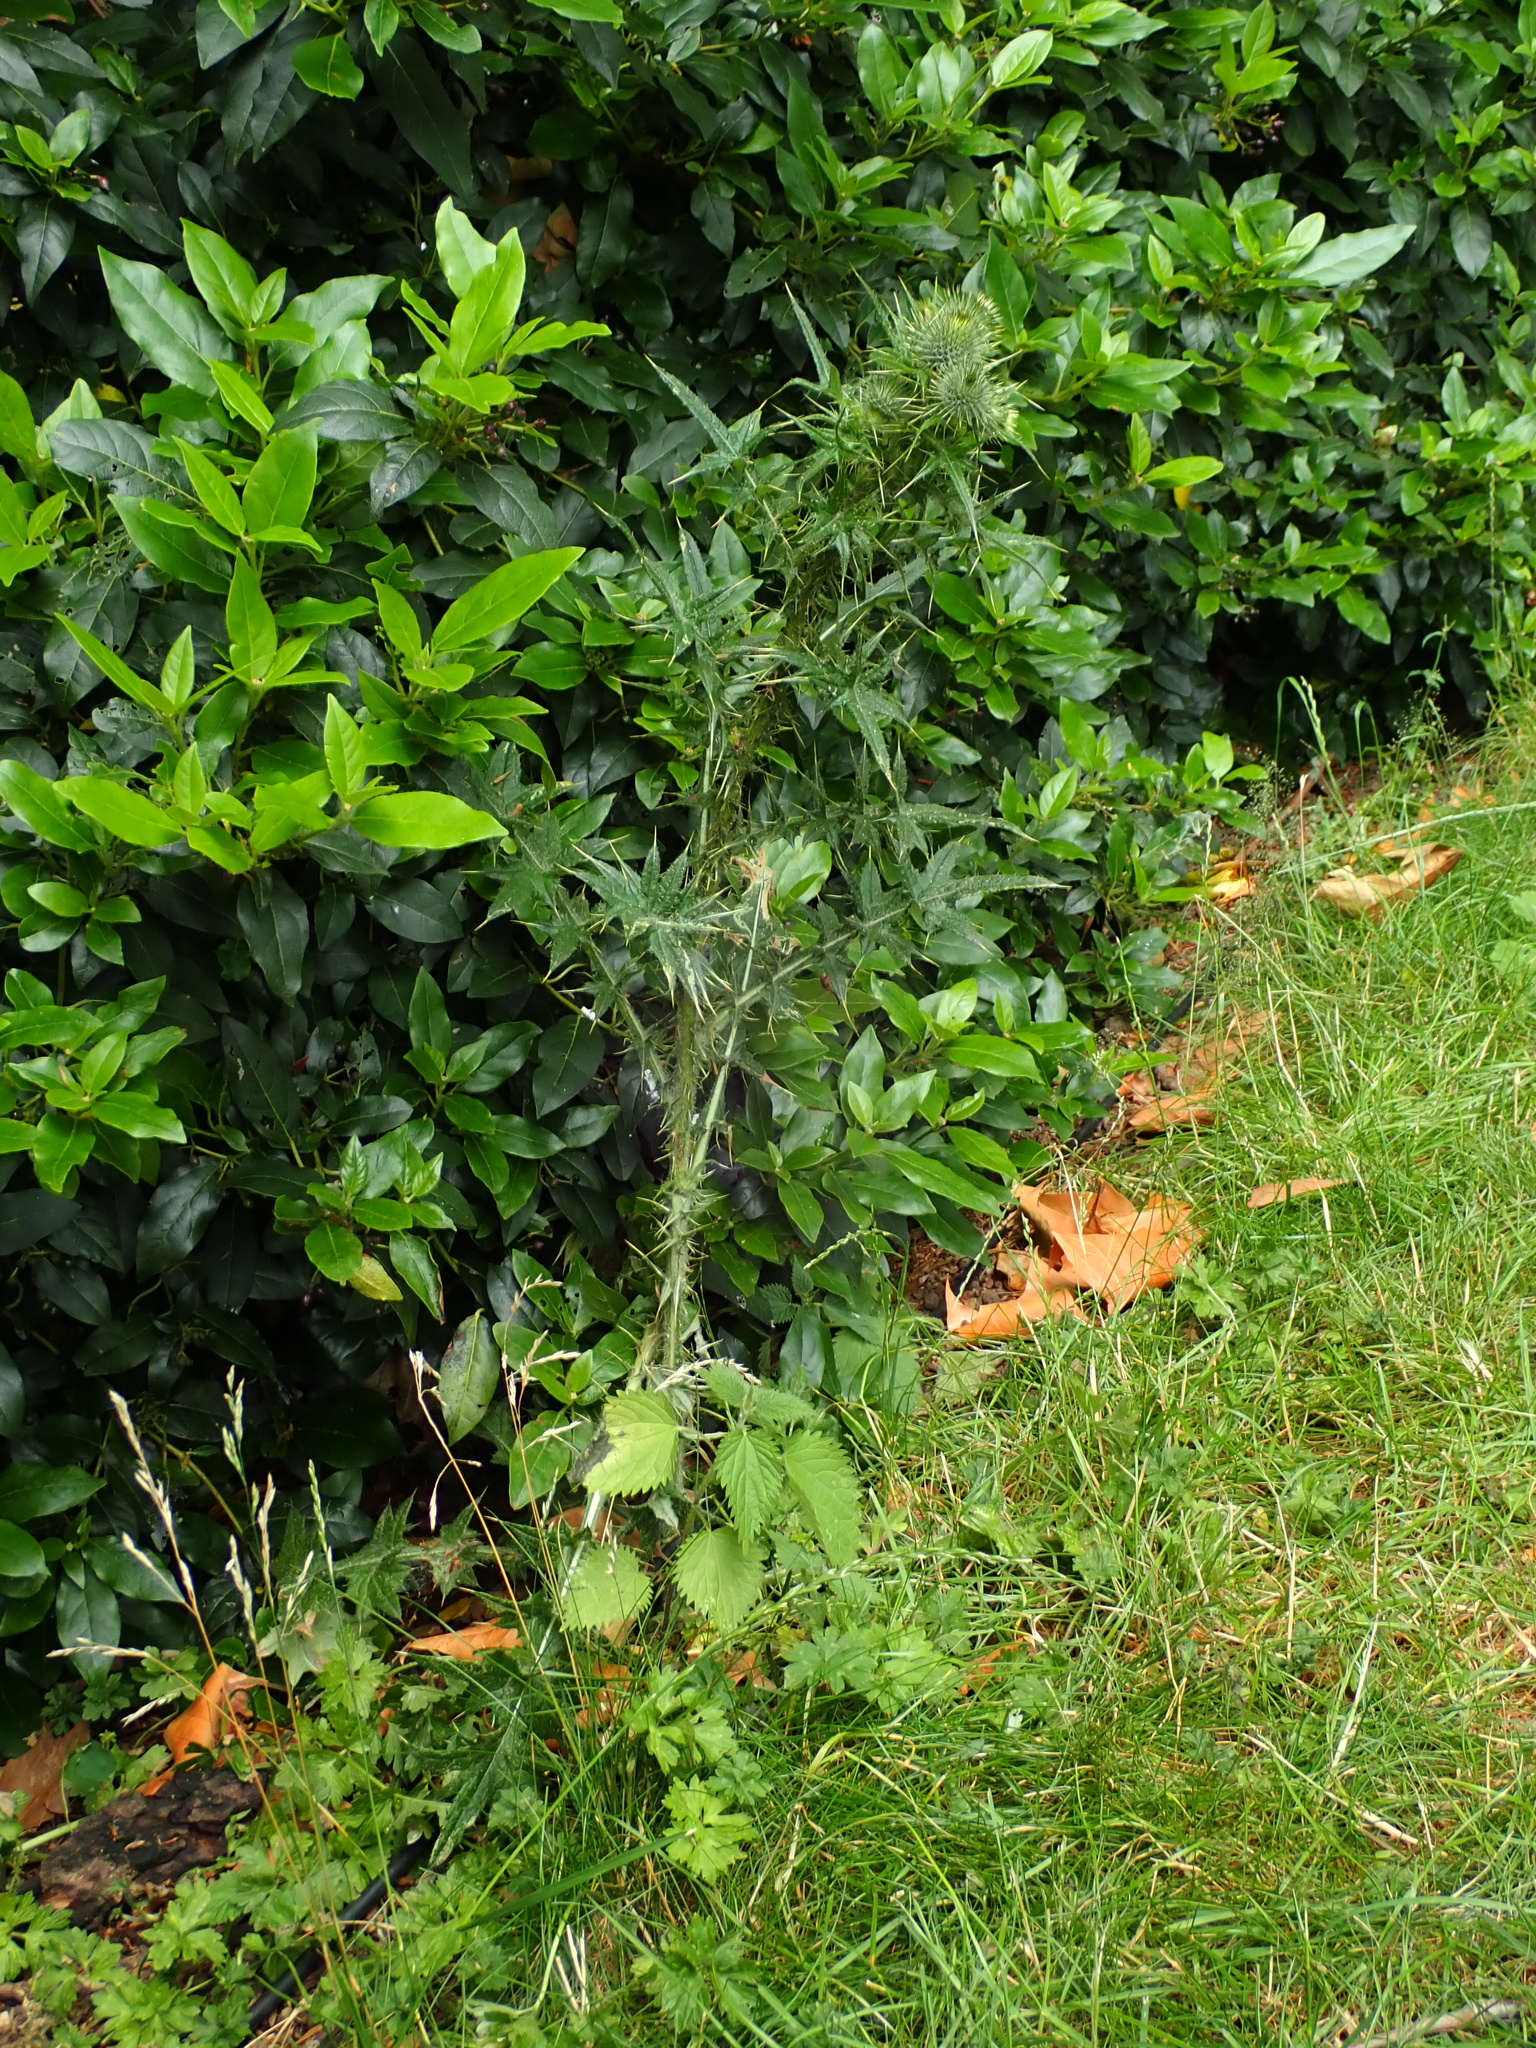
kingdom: Plantae
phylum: Tracheophyta
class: Magnoliopsida
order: Asterales
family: Asteraceae
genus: Cirsium
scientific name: Cirsium vulgare
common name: Bull thistle
